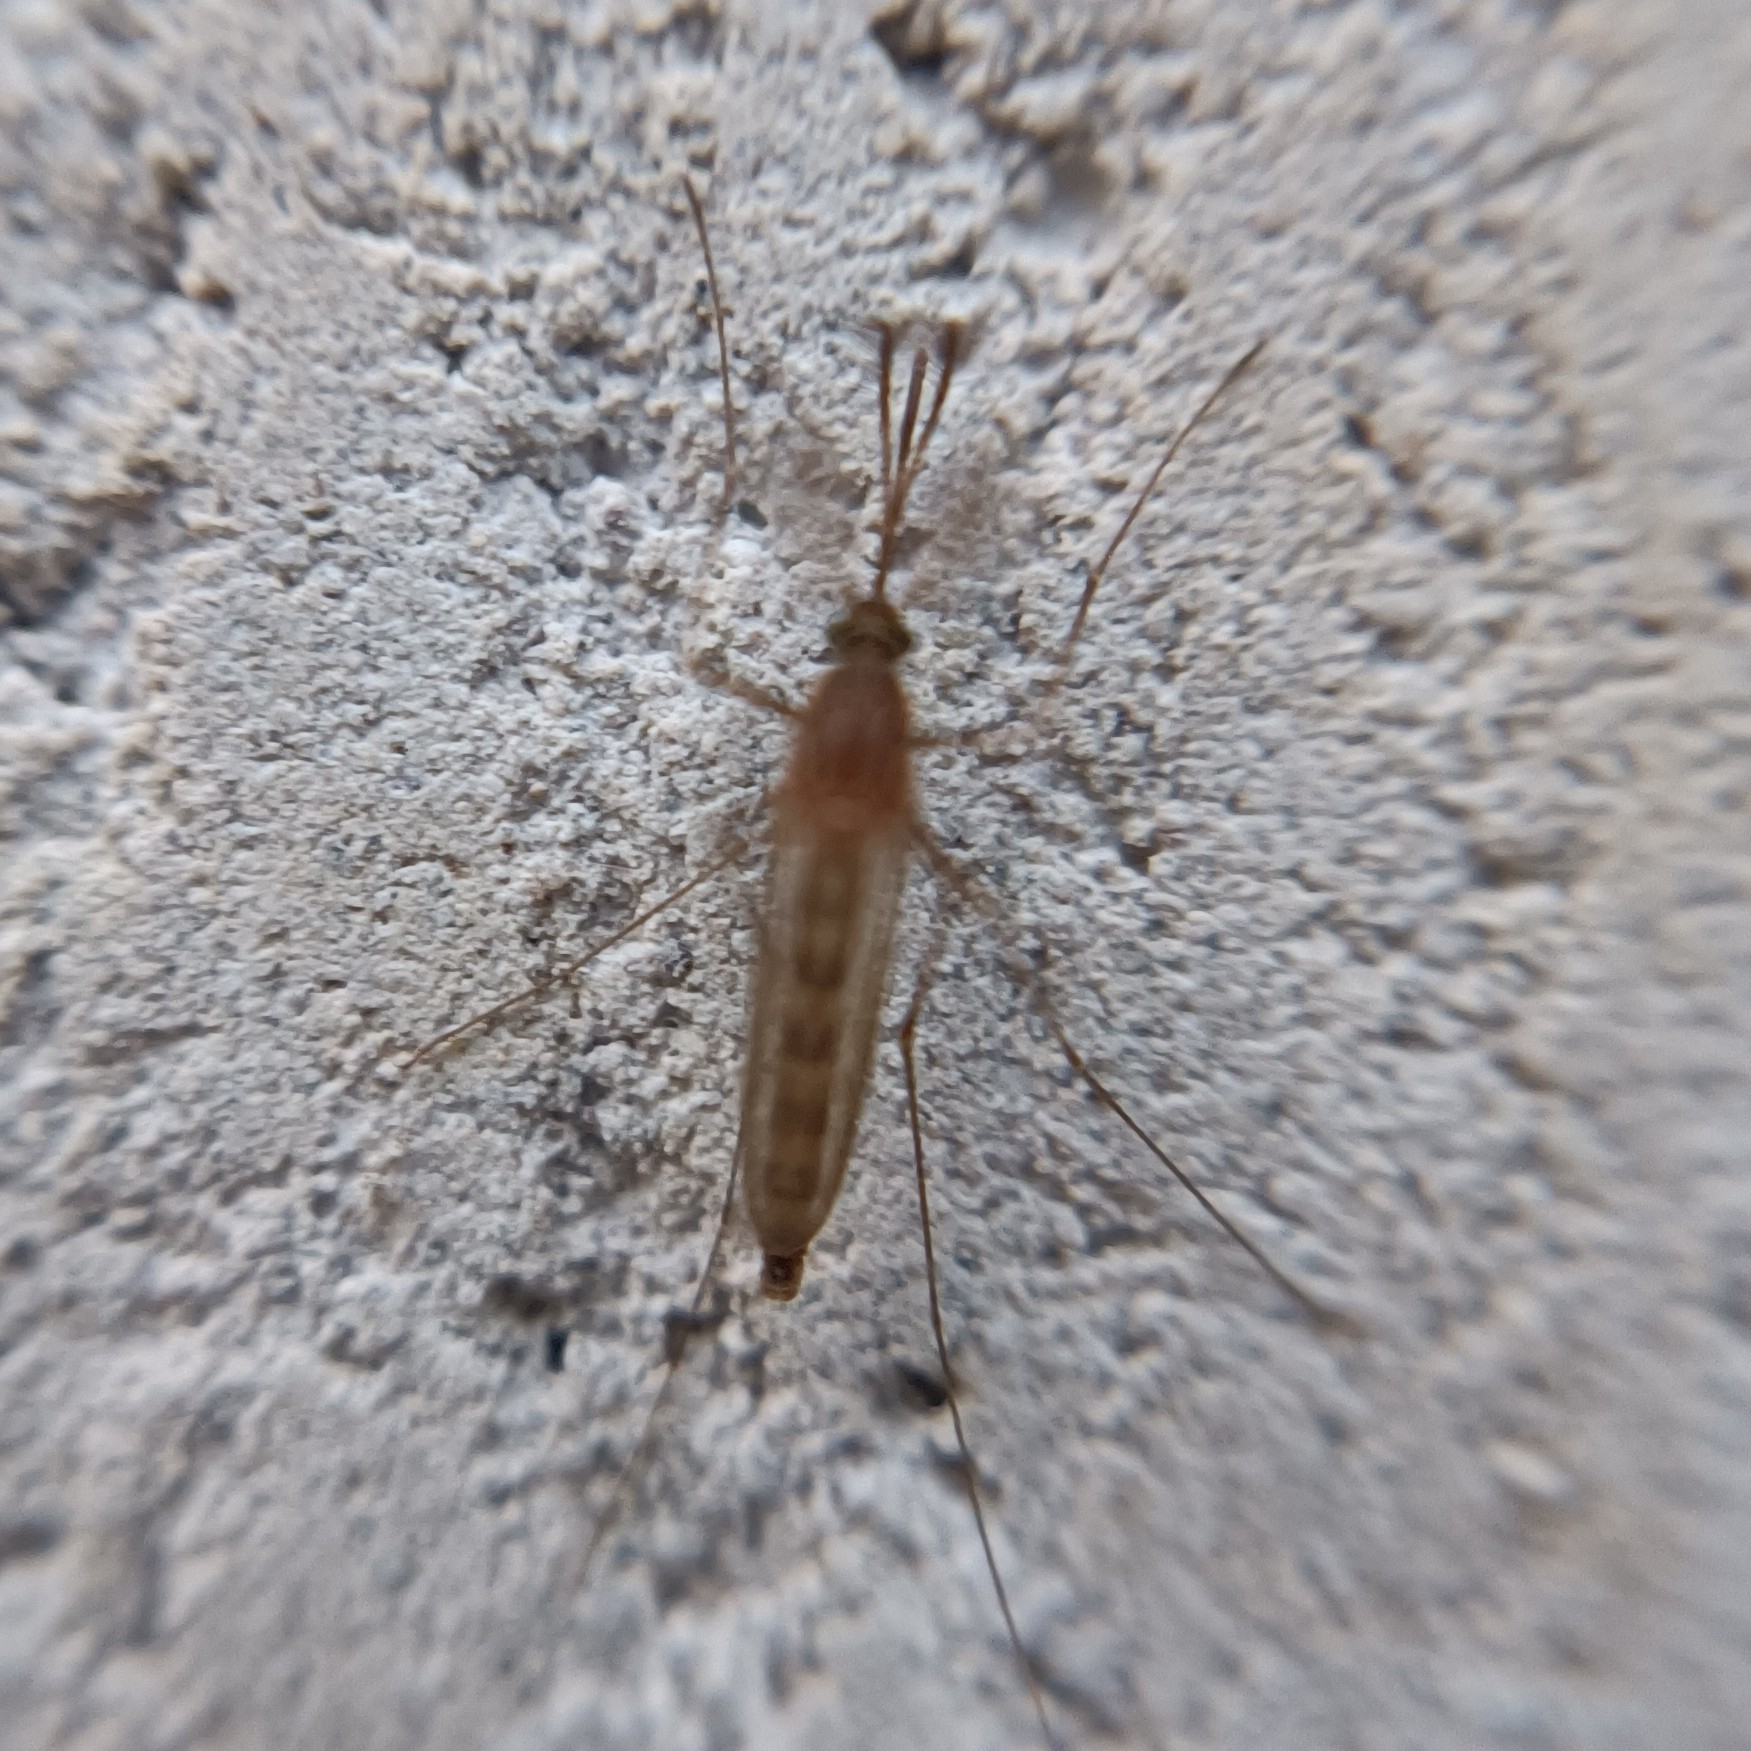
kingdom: Animalia
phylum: Arthropoda
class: Insecta
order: Diptera
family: Culicidae
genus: Culex
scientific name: Culex
